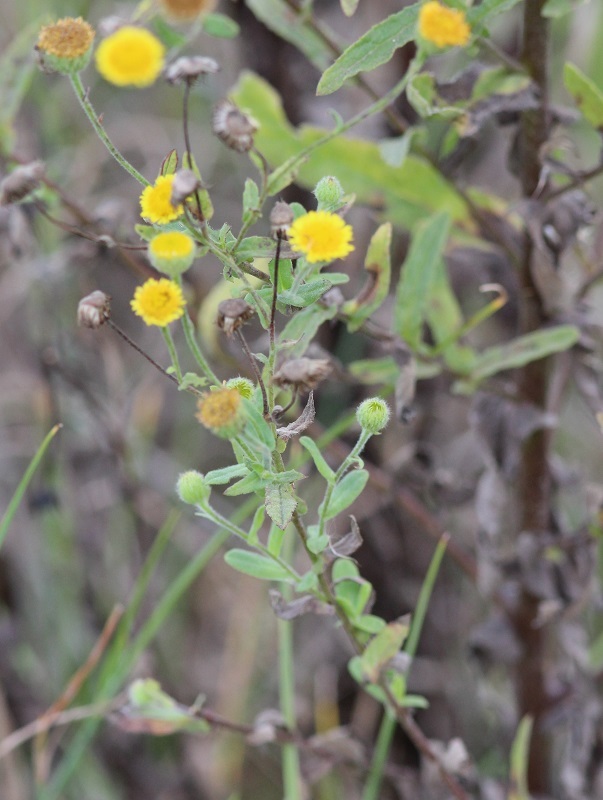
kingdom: Plantae
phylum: Tracheophyta
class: Magnoliopsida
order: Asterales
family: Asteraceae
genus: Pulicaria
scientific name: Pulicaria scabra
